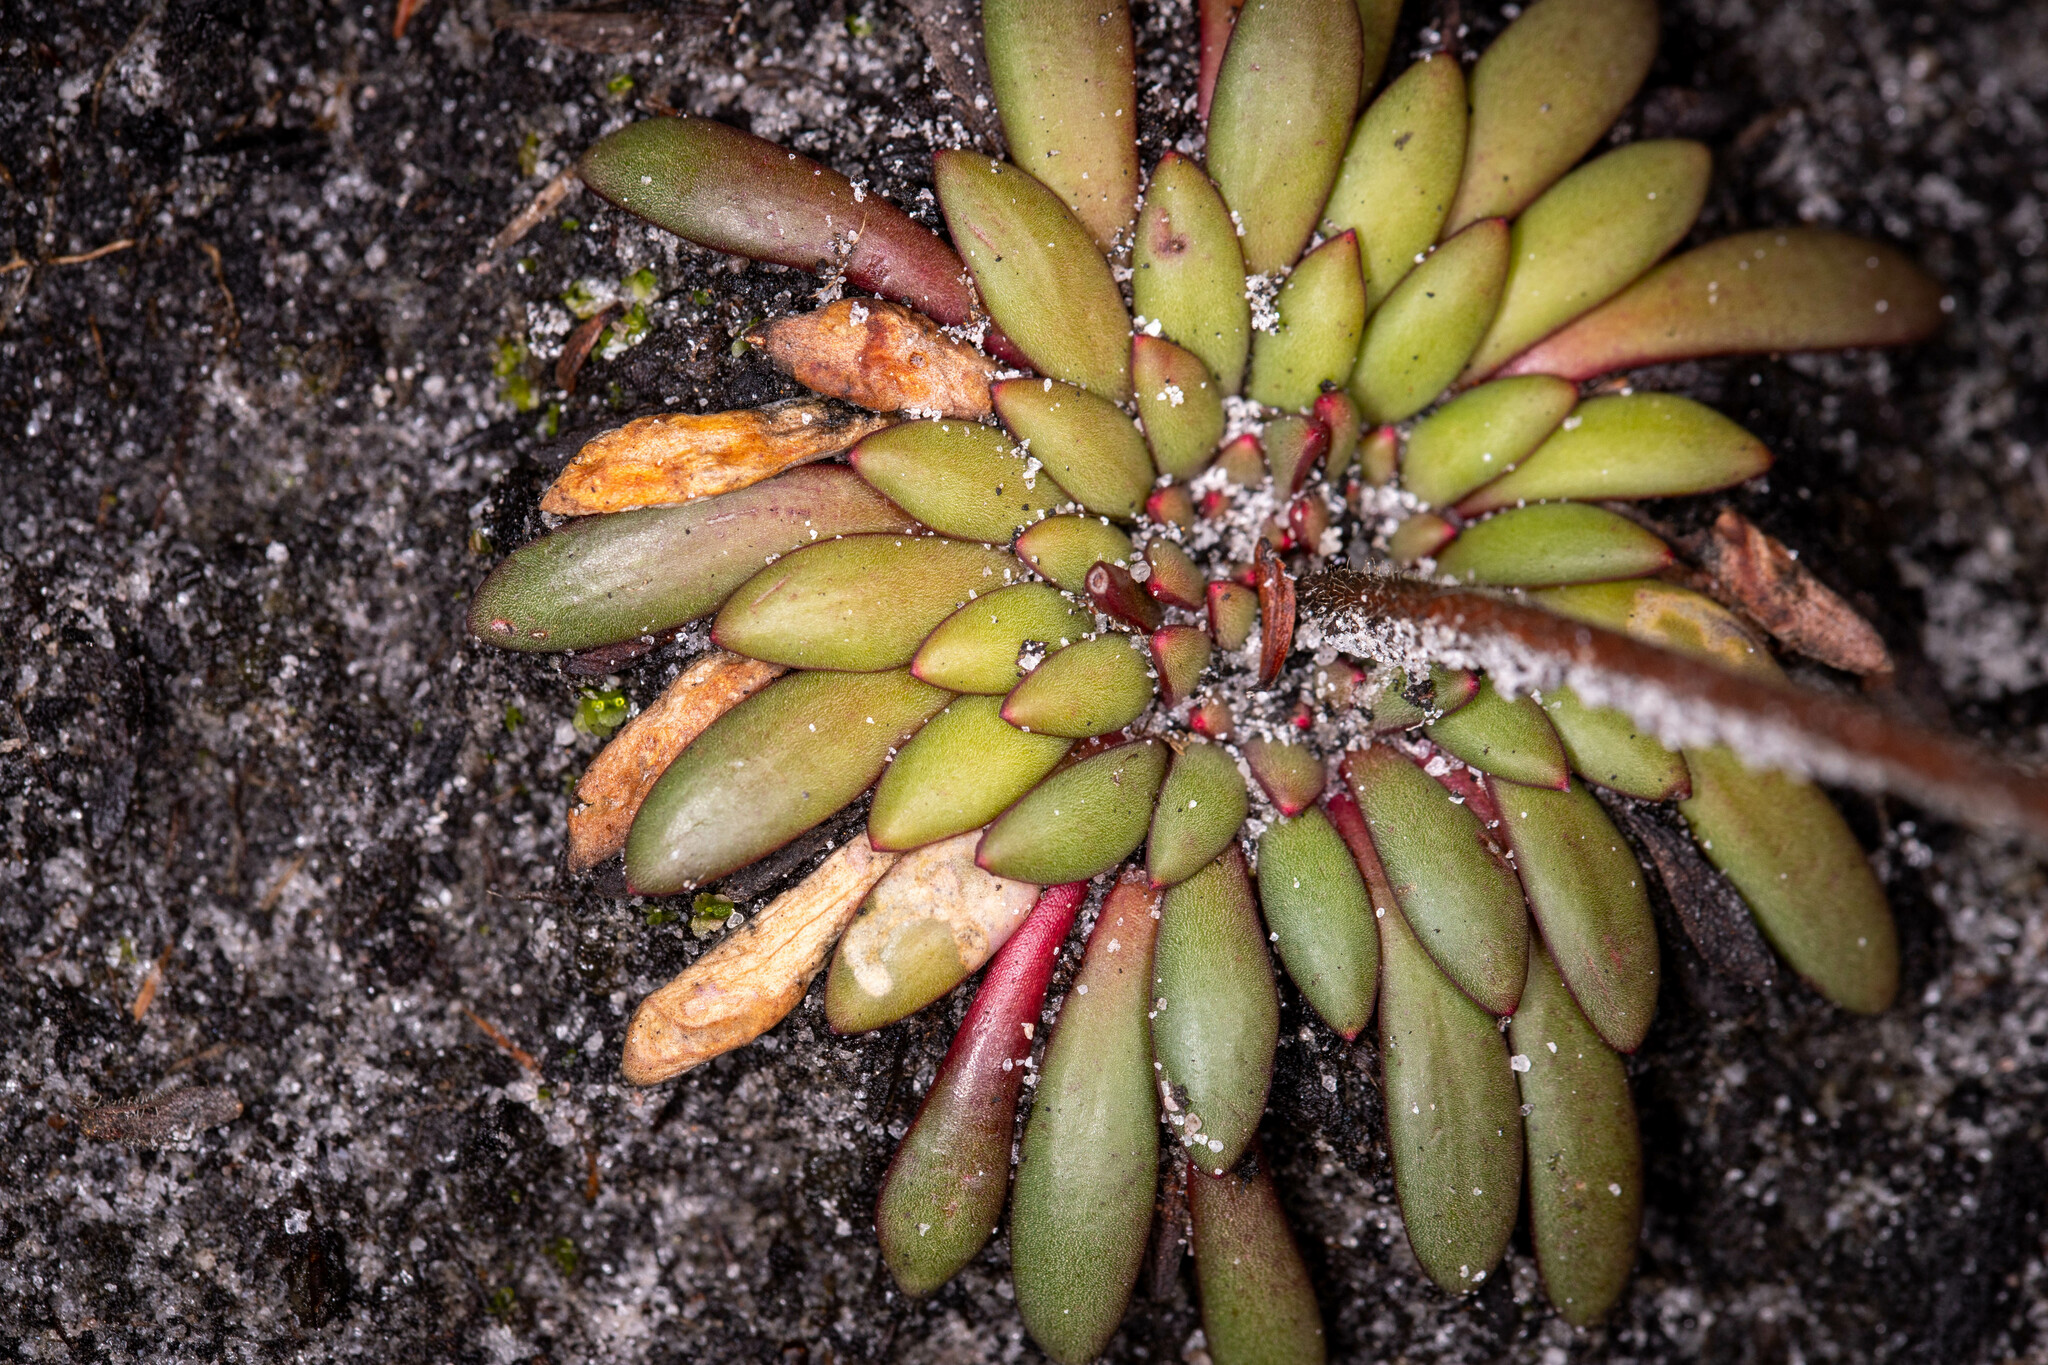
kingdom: Plantae
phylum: Tracheophyta
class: Magnoliopsida
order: Asterales
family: Stylidiaceae
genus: Stylidium
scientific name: Stylidium assimile
